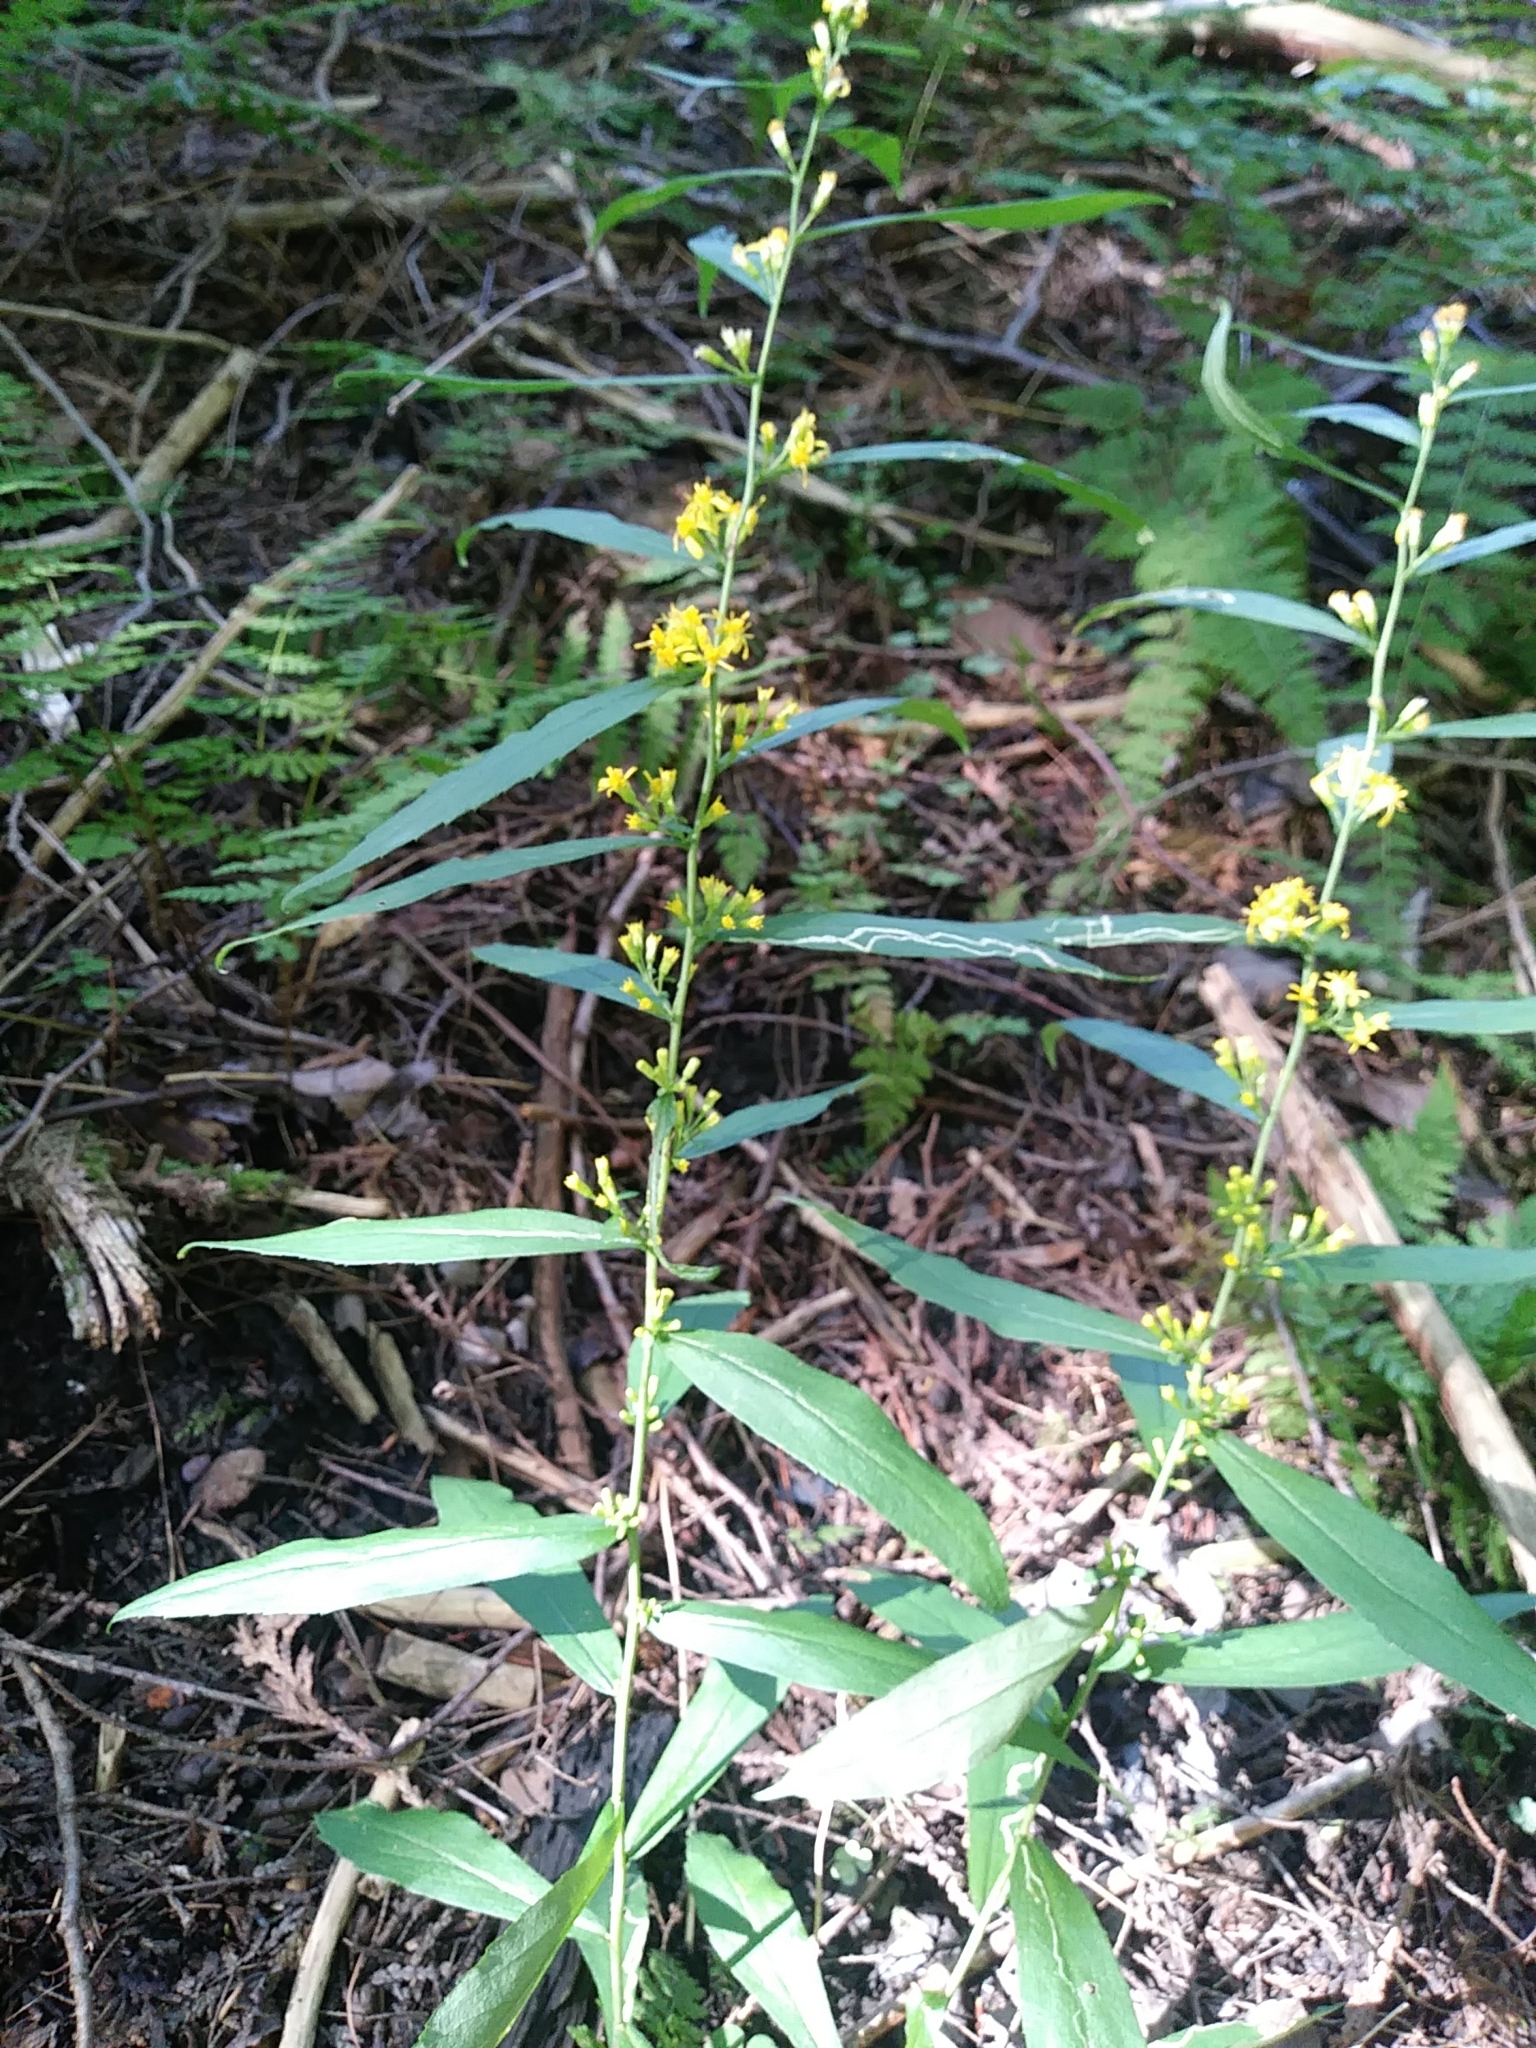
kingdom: Plantae
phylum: Tracheophyta
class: Magnoliopsida
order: Asterales
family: Asteraceae
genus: Solidago
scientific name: Solidago caesia
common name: Woodland goldenrod
